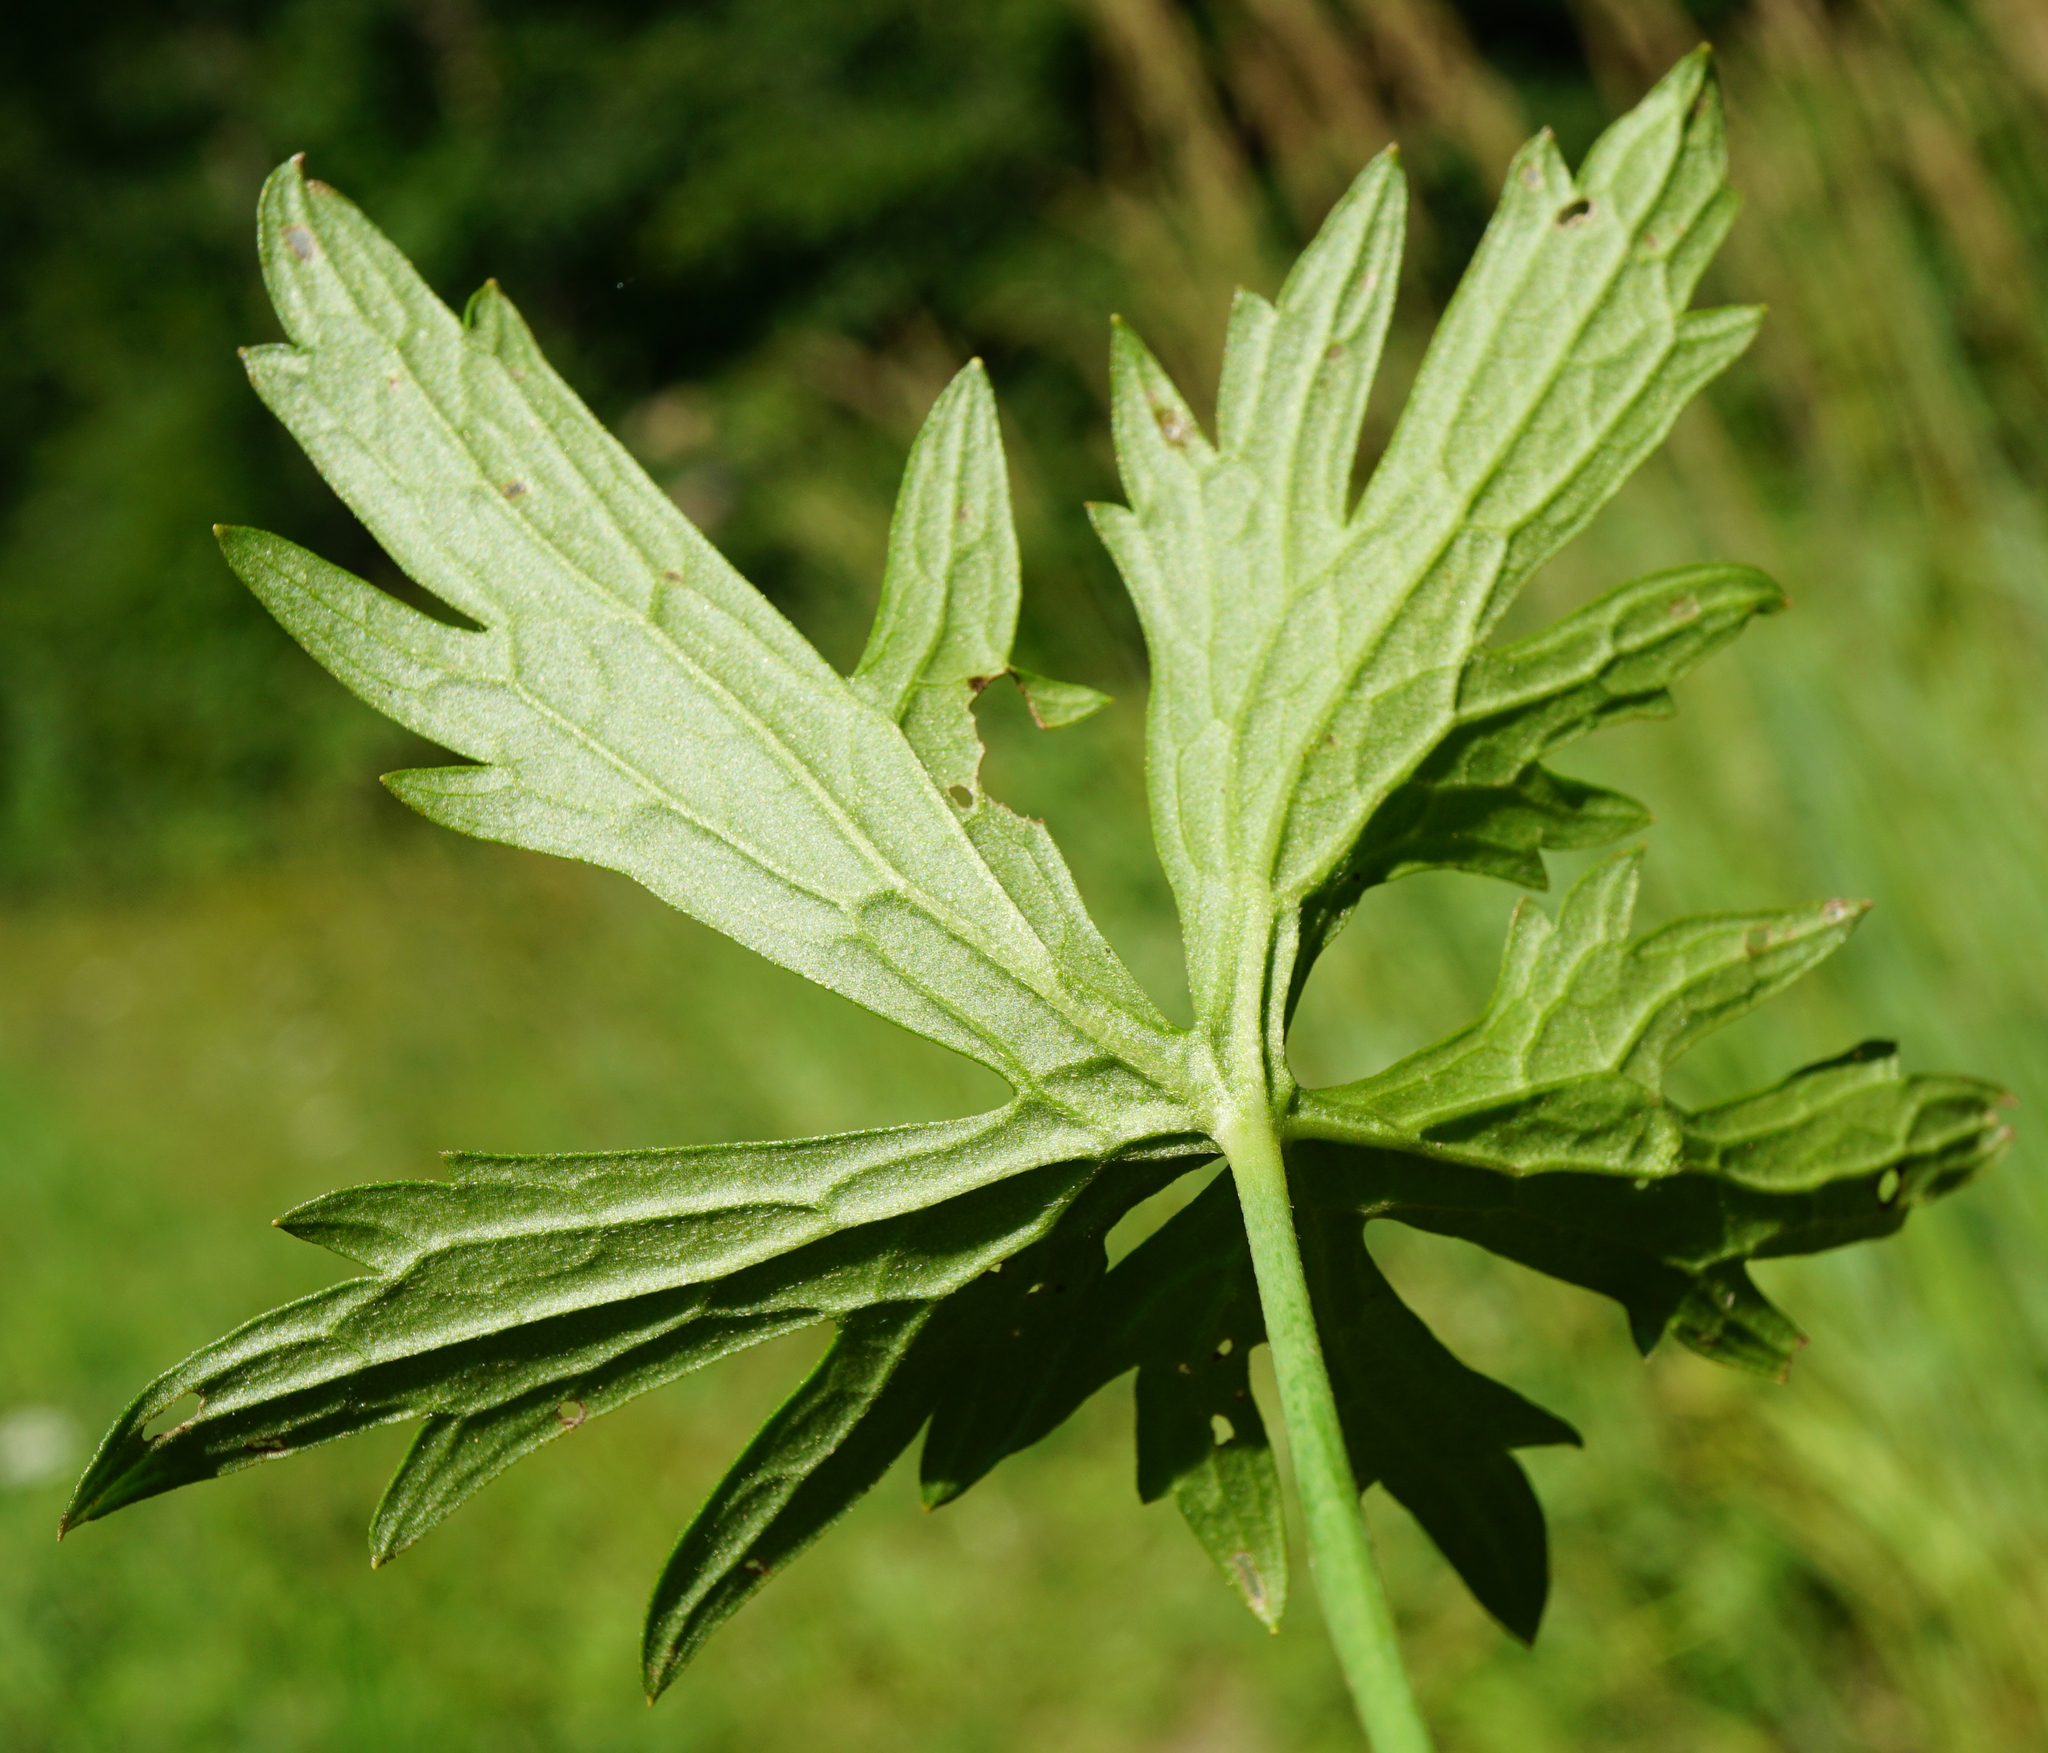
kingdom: Plantae
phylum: Tracheophyta
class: Magnoliopsida
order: Ranunculales
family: Ranunculaceae
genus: Ranunculus
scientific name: Ranunculus acris
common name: Meadow buttercup
